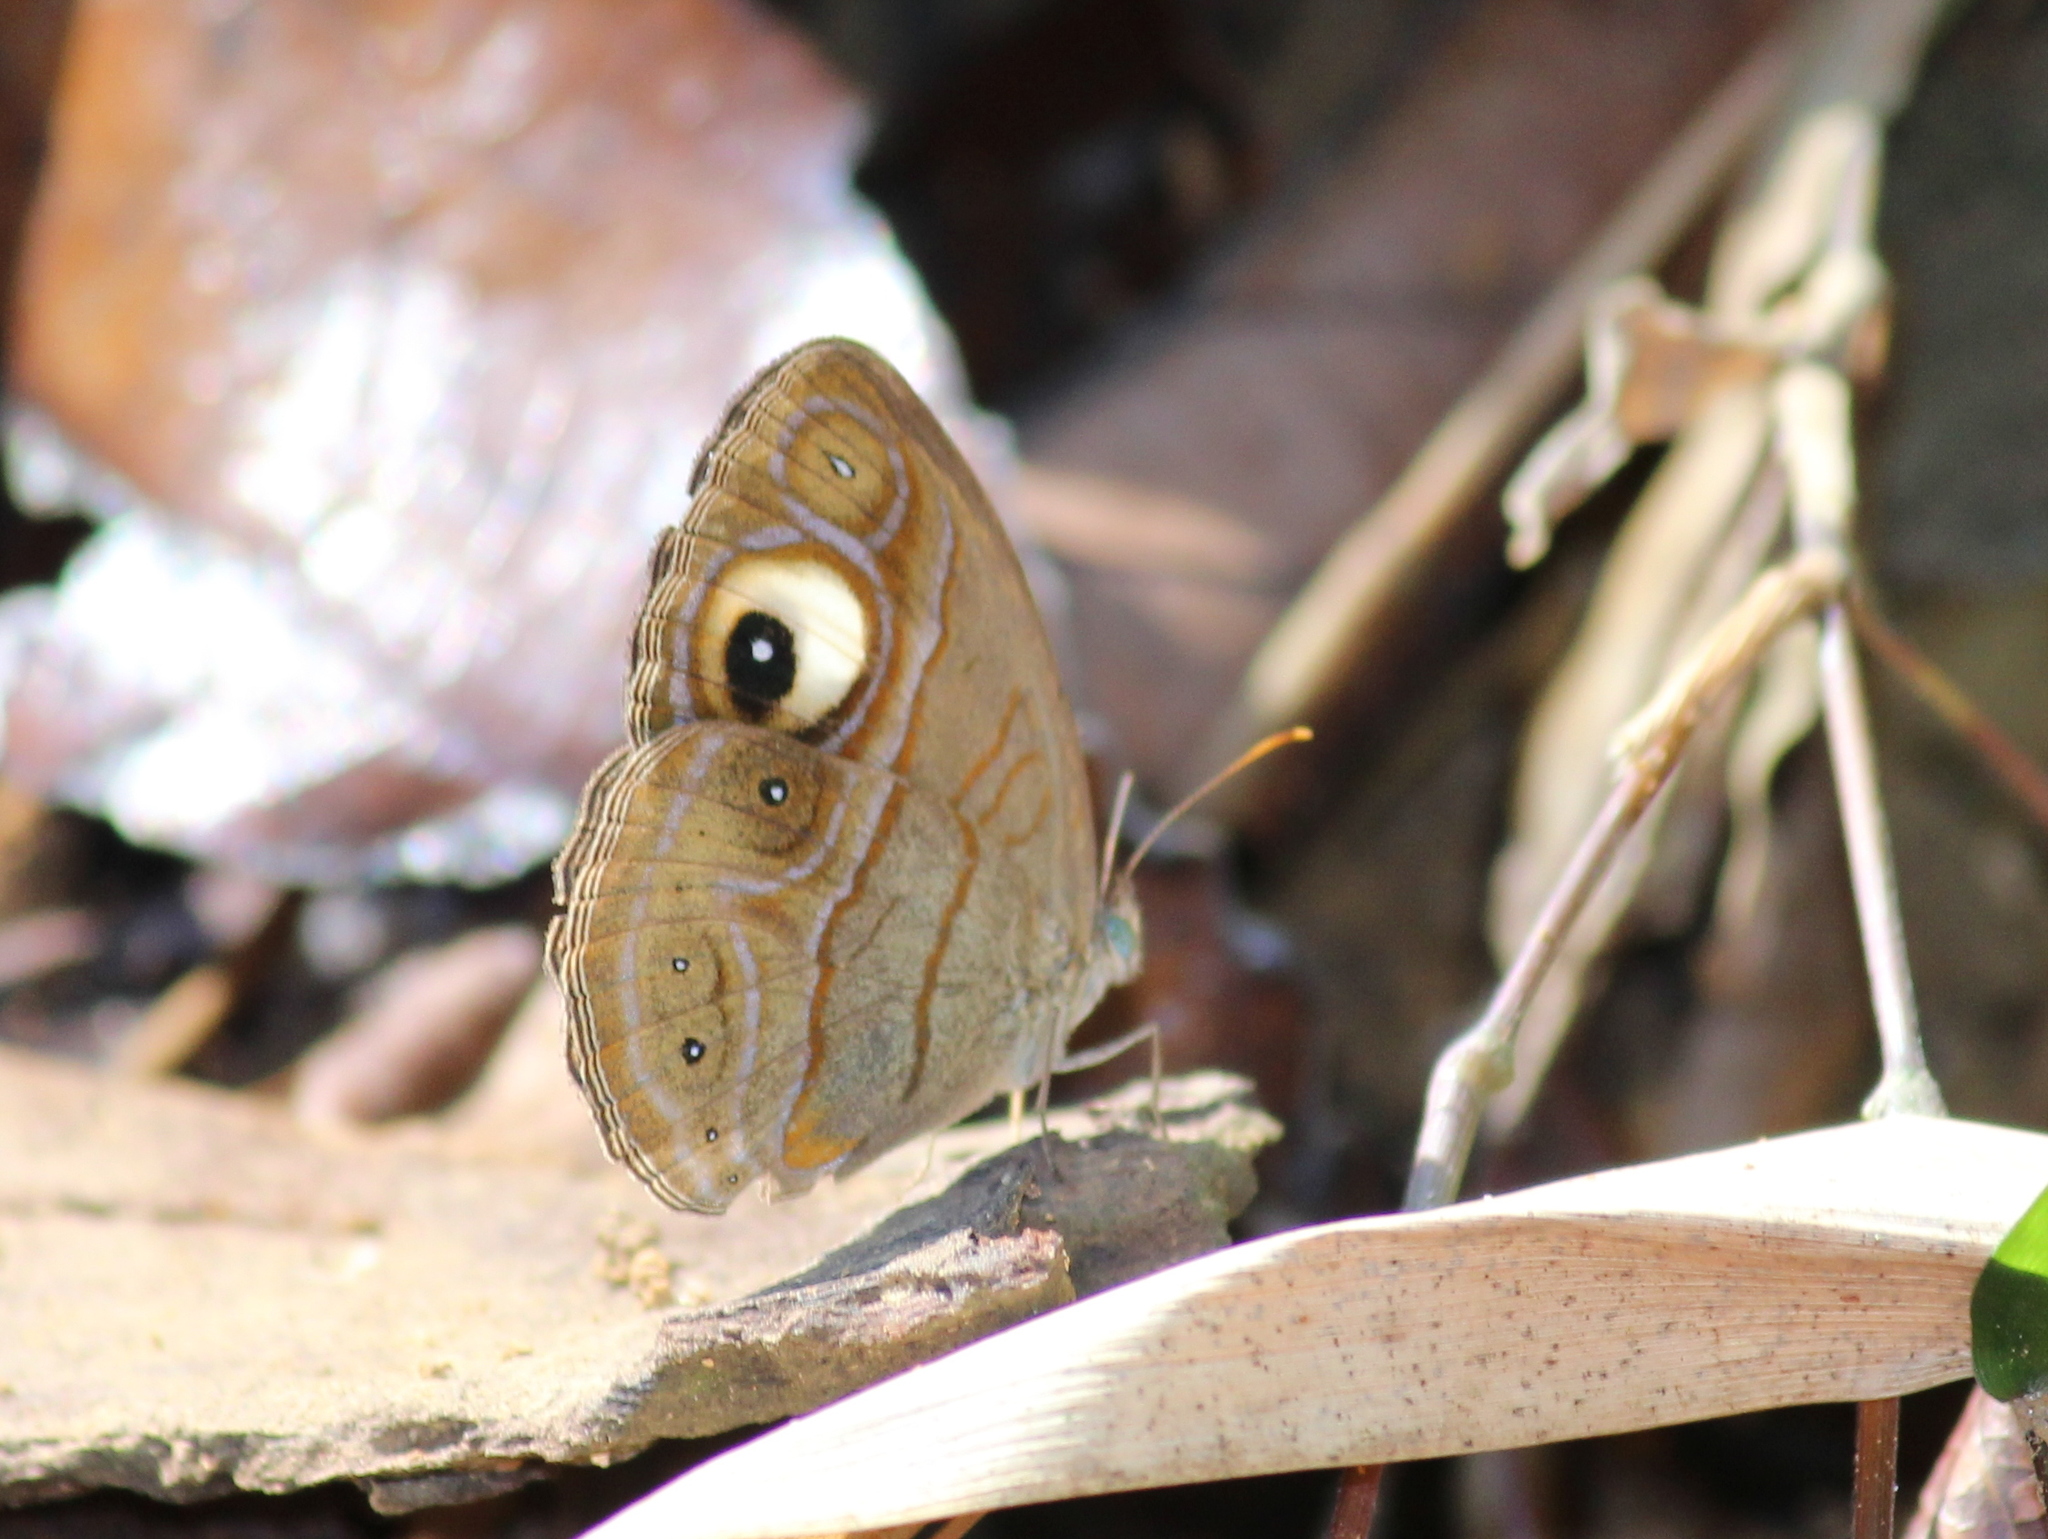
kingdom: Animalia
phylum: Arthropoda
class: Insecta
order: Lepidoptera
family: Nymphalidae
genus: Mycalesis
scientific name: Mycalesis patnia
